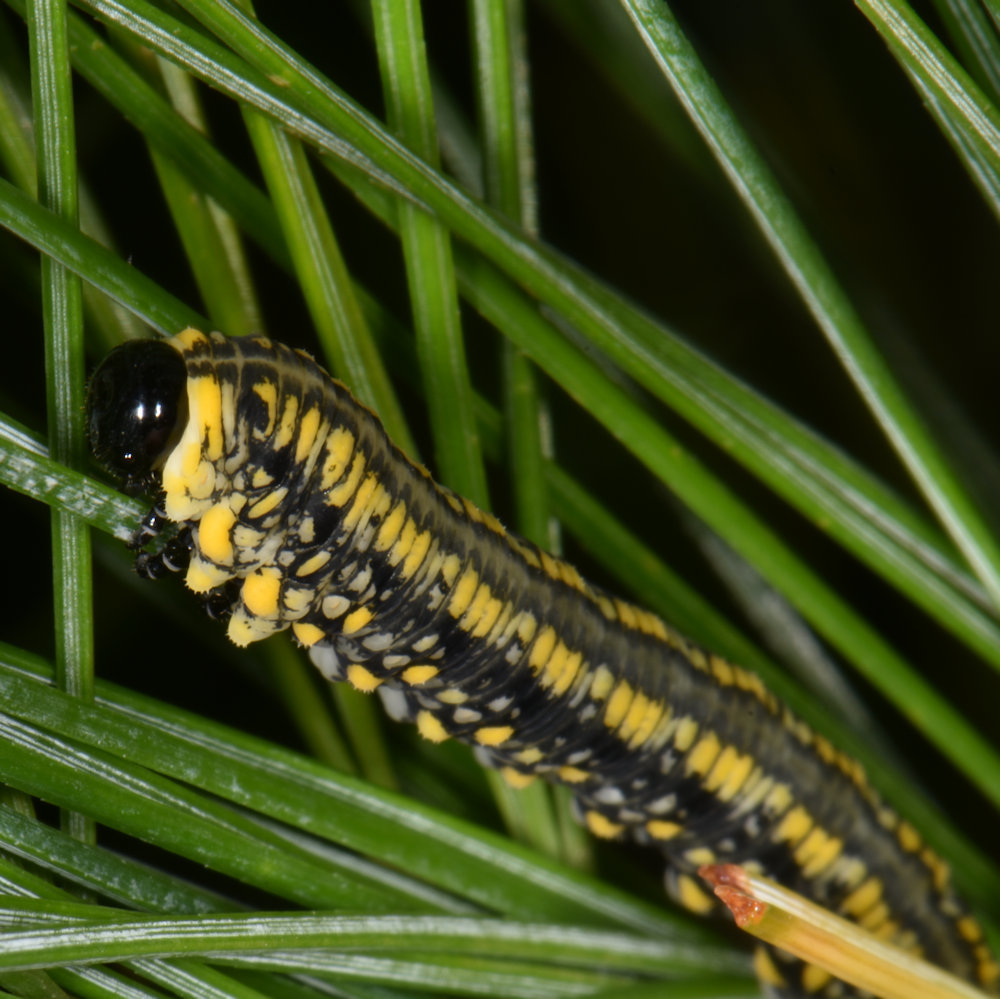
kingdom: Animalia
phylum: Arthropoda
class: Insecta
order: Hymenoptera
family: Diprionidae
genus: Diprion
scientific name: Diprion similis
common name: Pine sawfly
